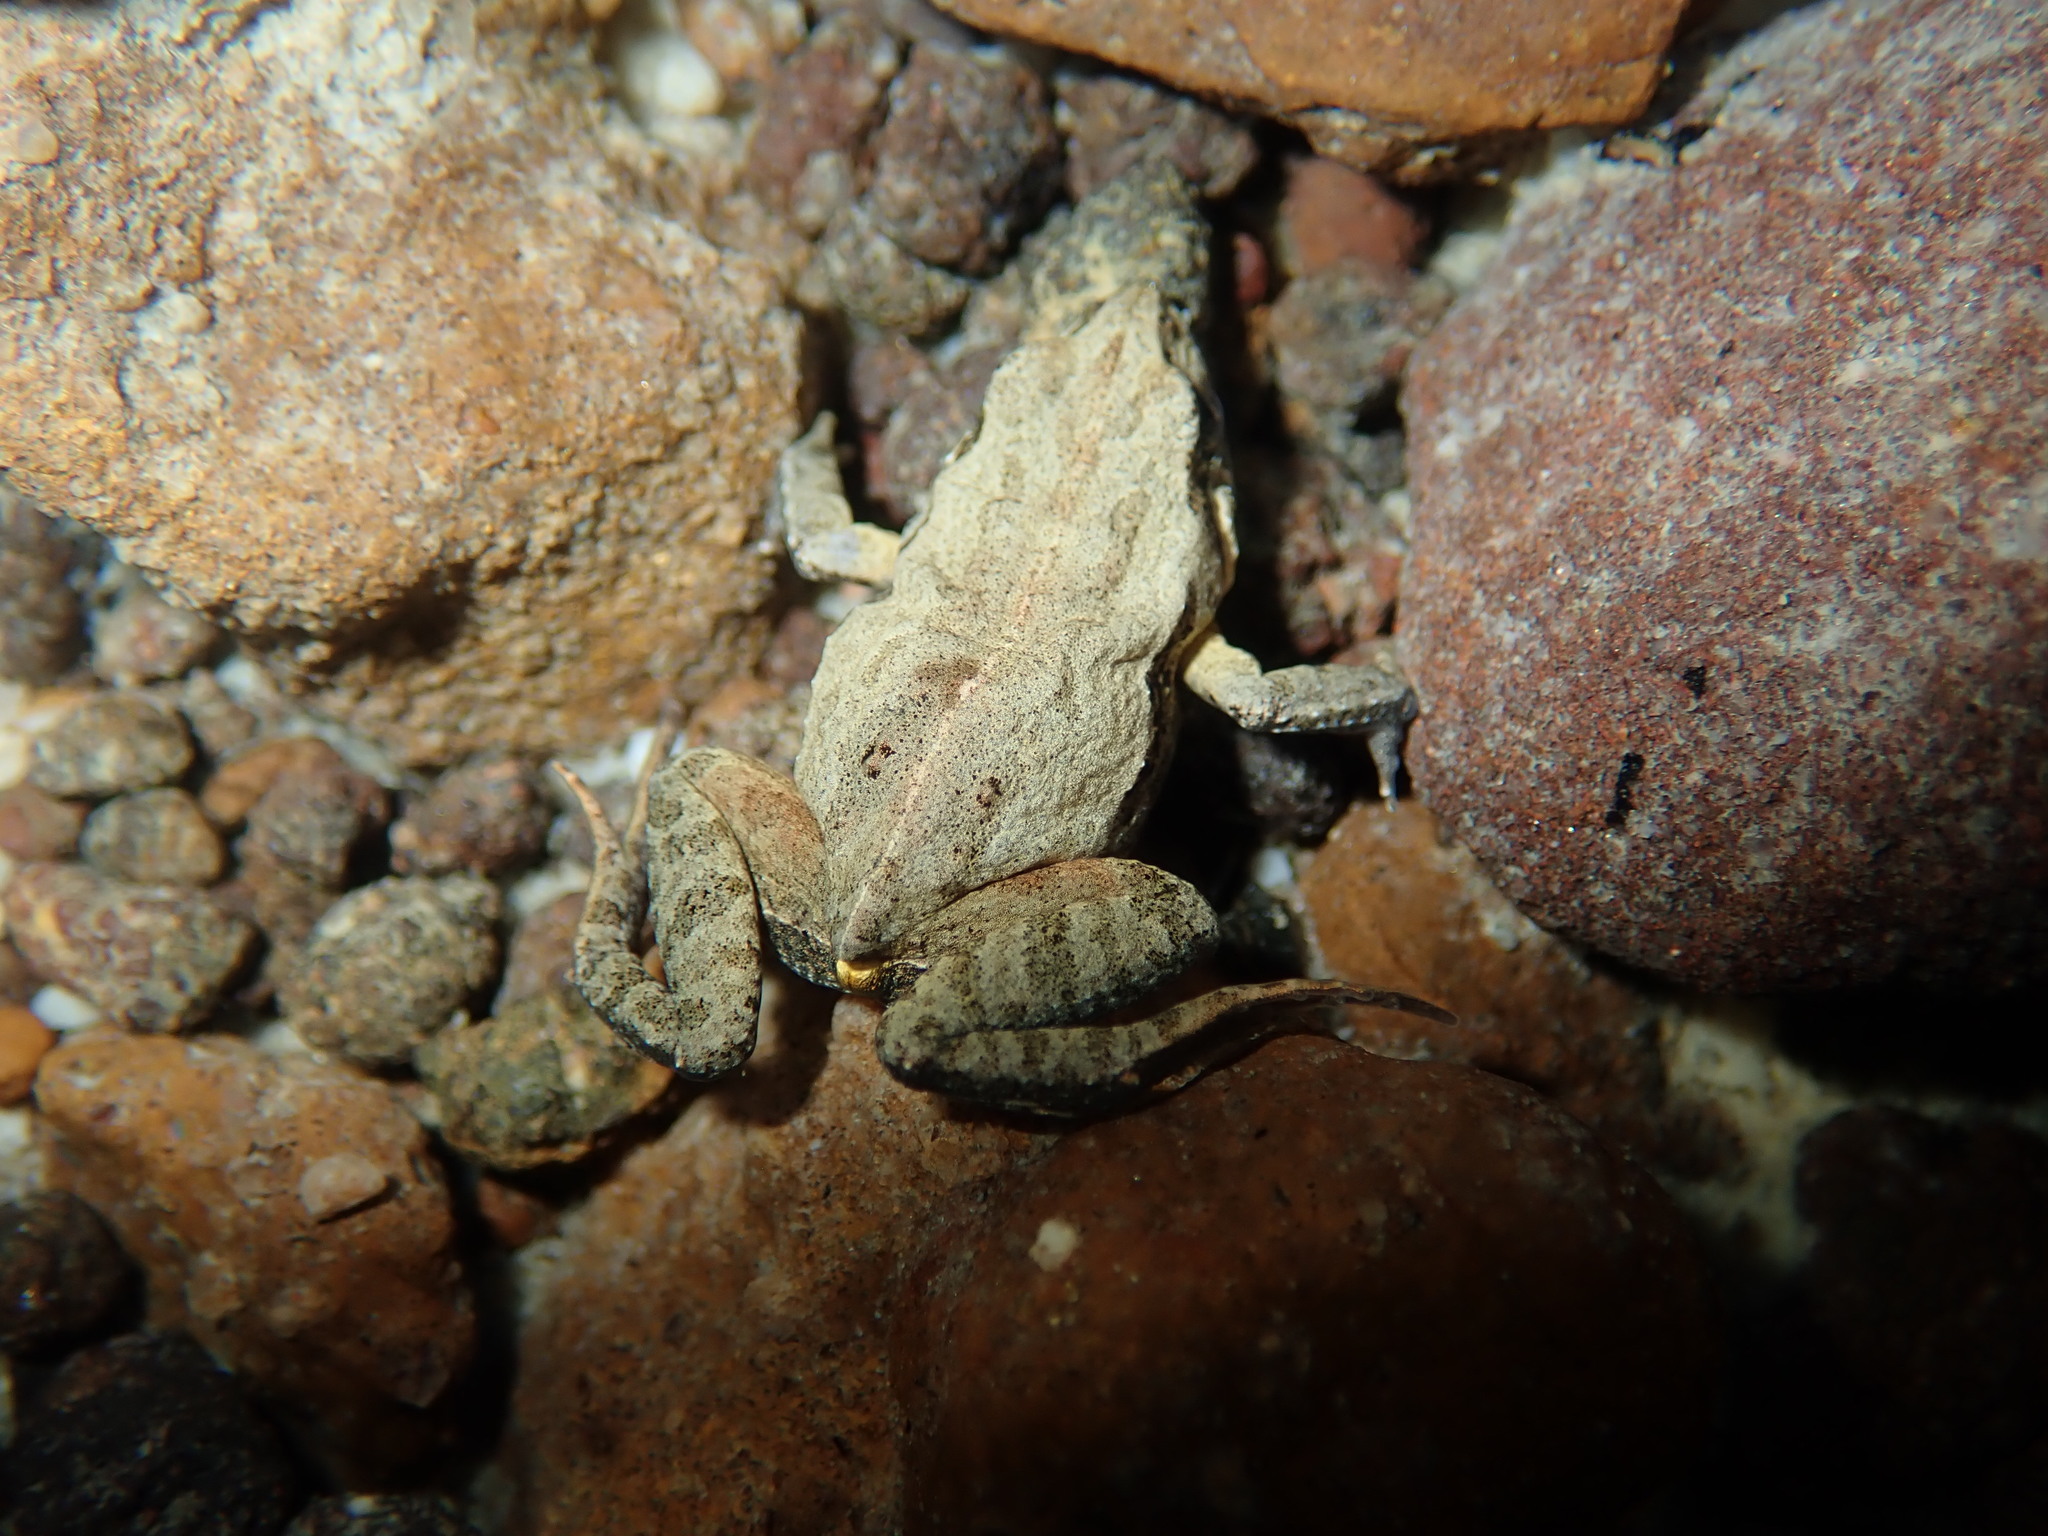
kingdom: Animalia
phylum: Chordata
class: Amphibia
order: Anura
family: Myobatrachidae
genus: Crinia
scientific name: Crinia signifera
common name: Brown froglet
